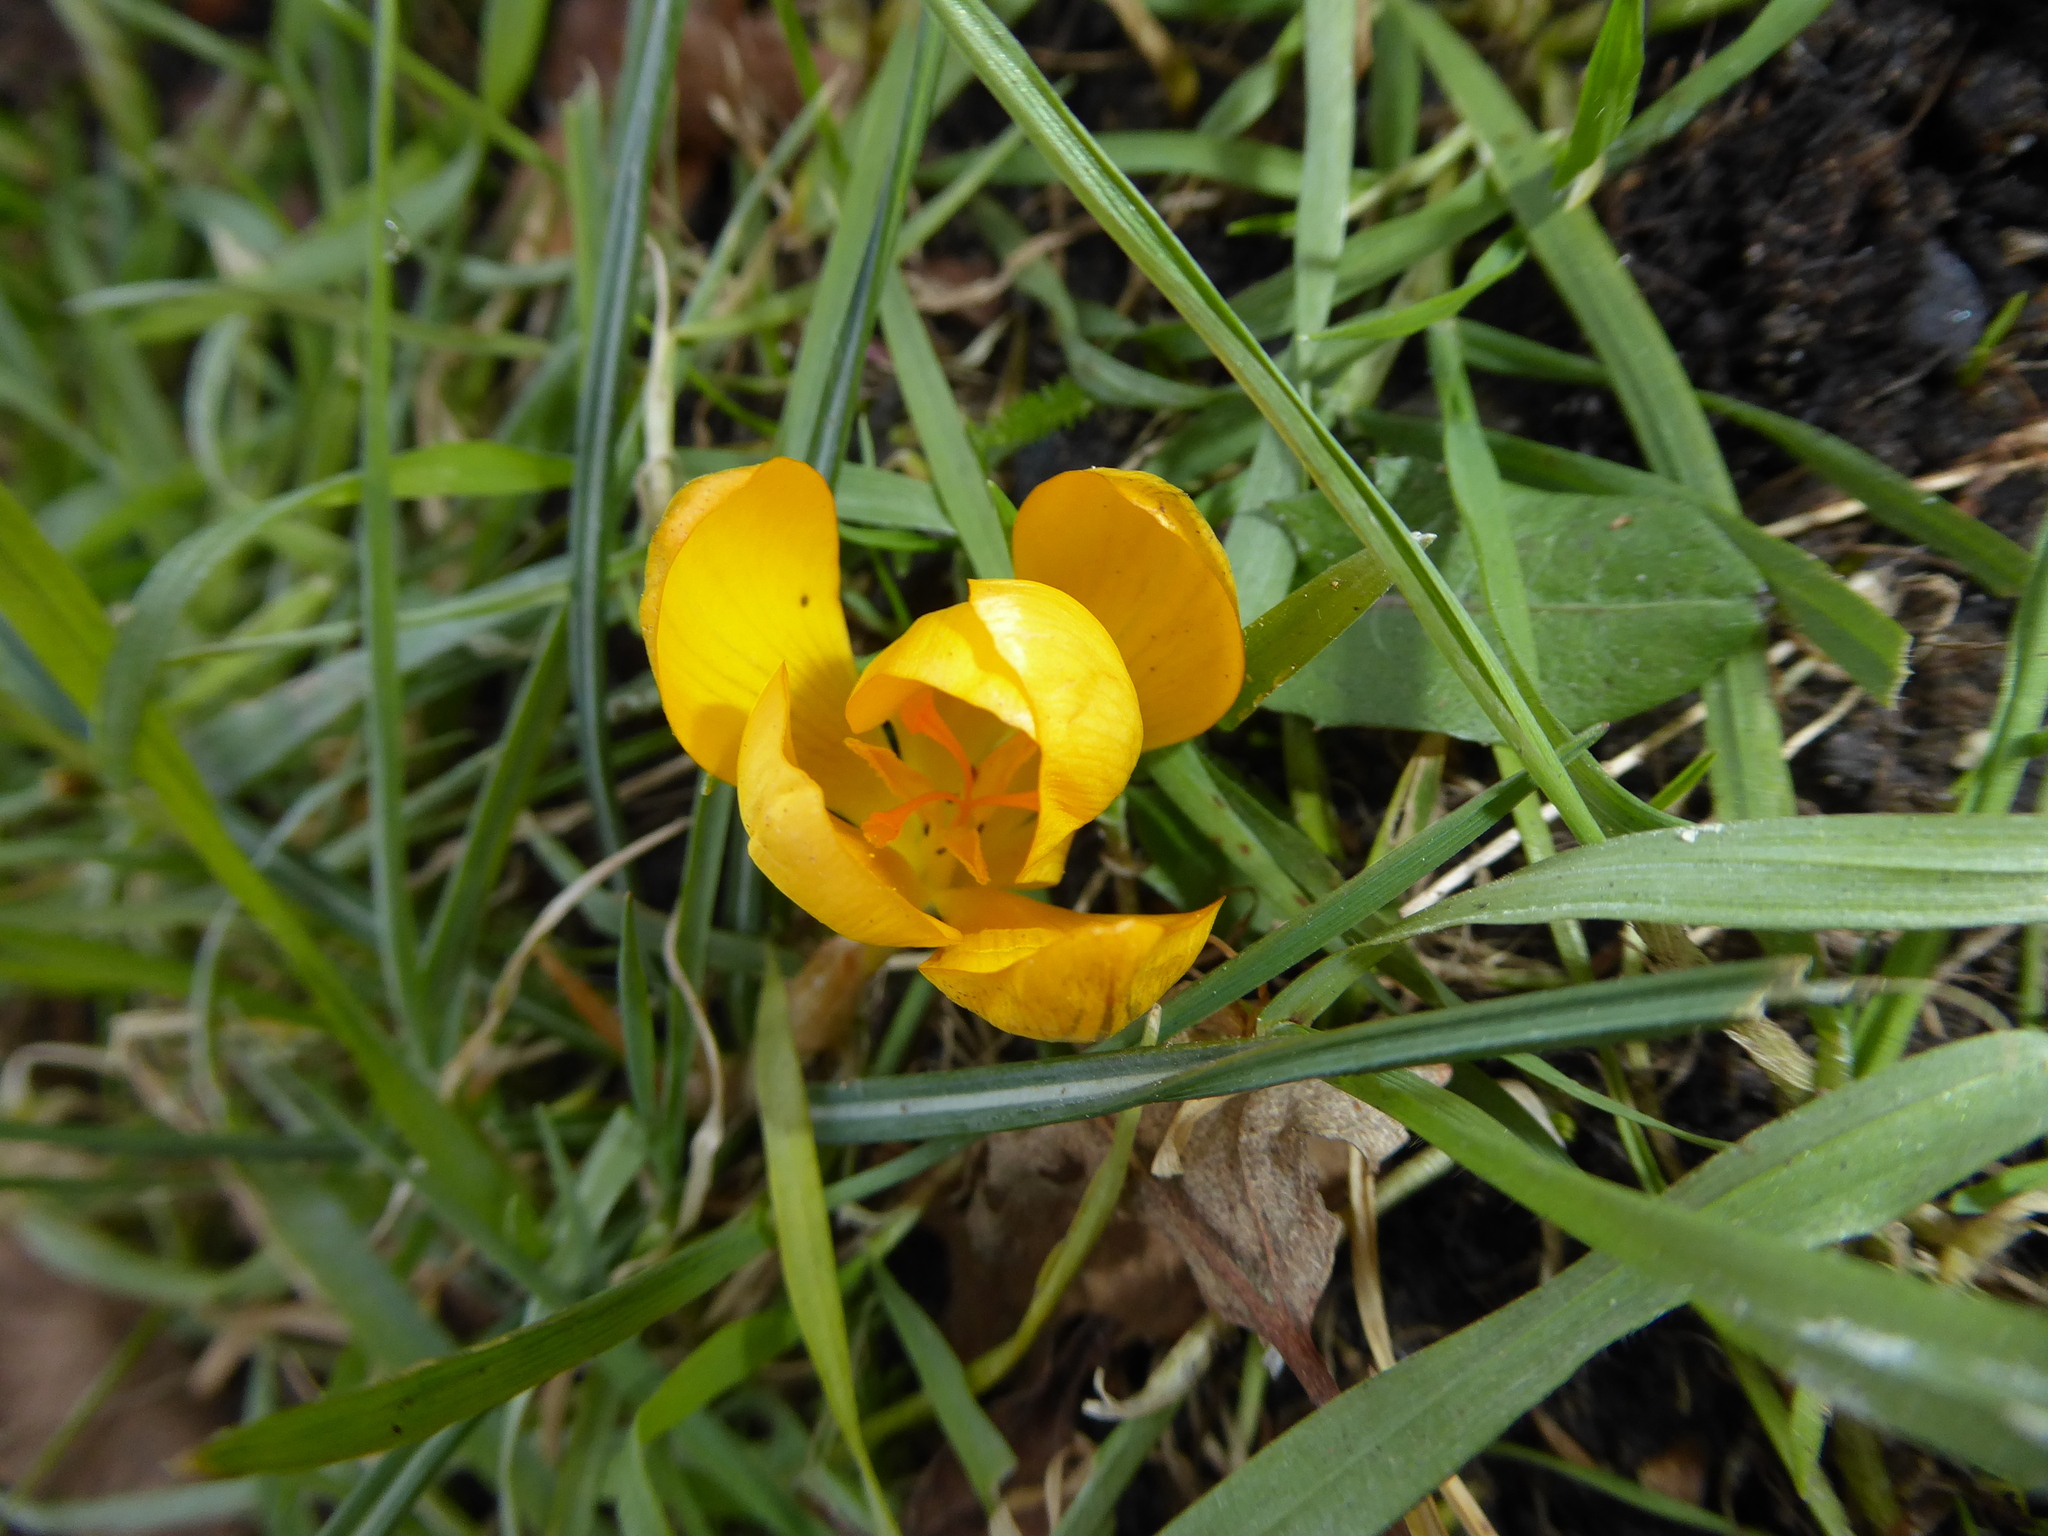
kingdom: Plantae
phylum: Tracheophyta
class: Liliopsida
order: Asparagales
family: Iridaceae
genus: Crocus
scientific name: Crocus chrysanthus
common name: Golden crocus
